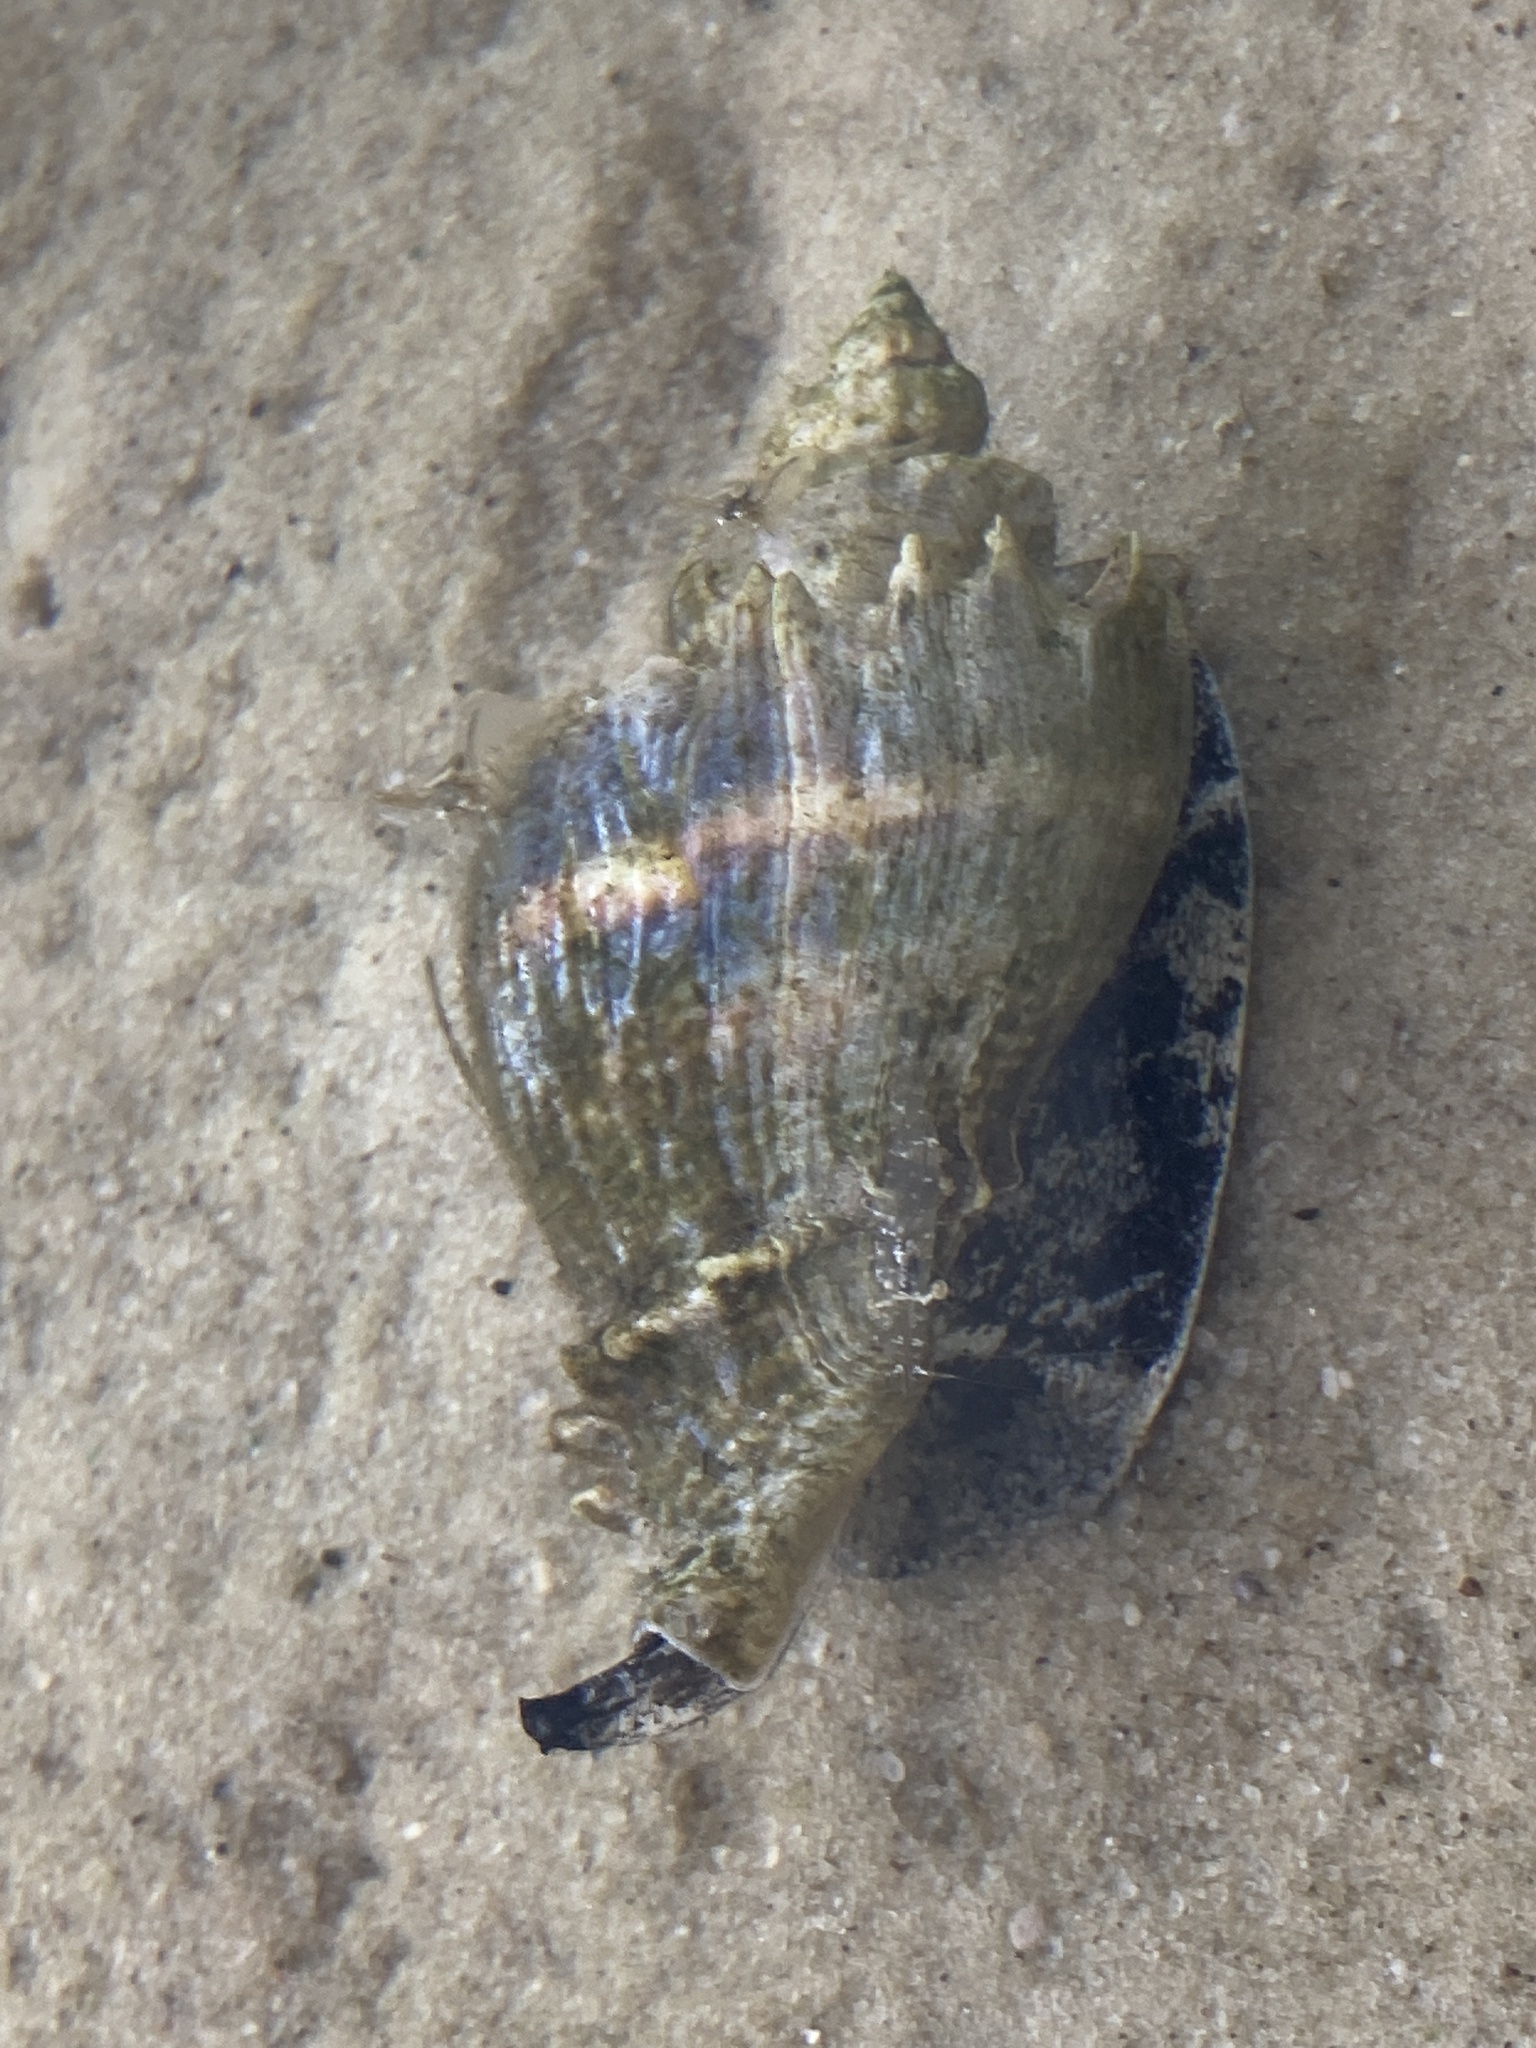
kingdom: Animalia
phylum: Mollusca
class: Gastropoda
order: Neogastropoda
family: Melongenidae
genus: Melongena
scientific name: Melongena corona
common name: American crown conch
